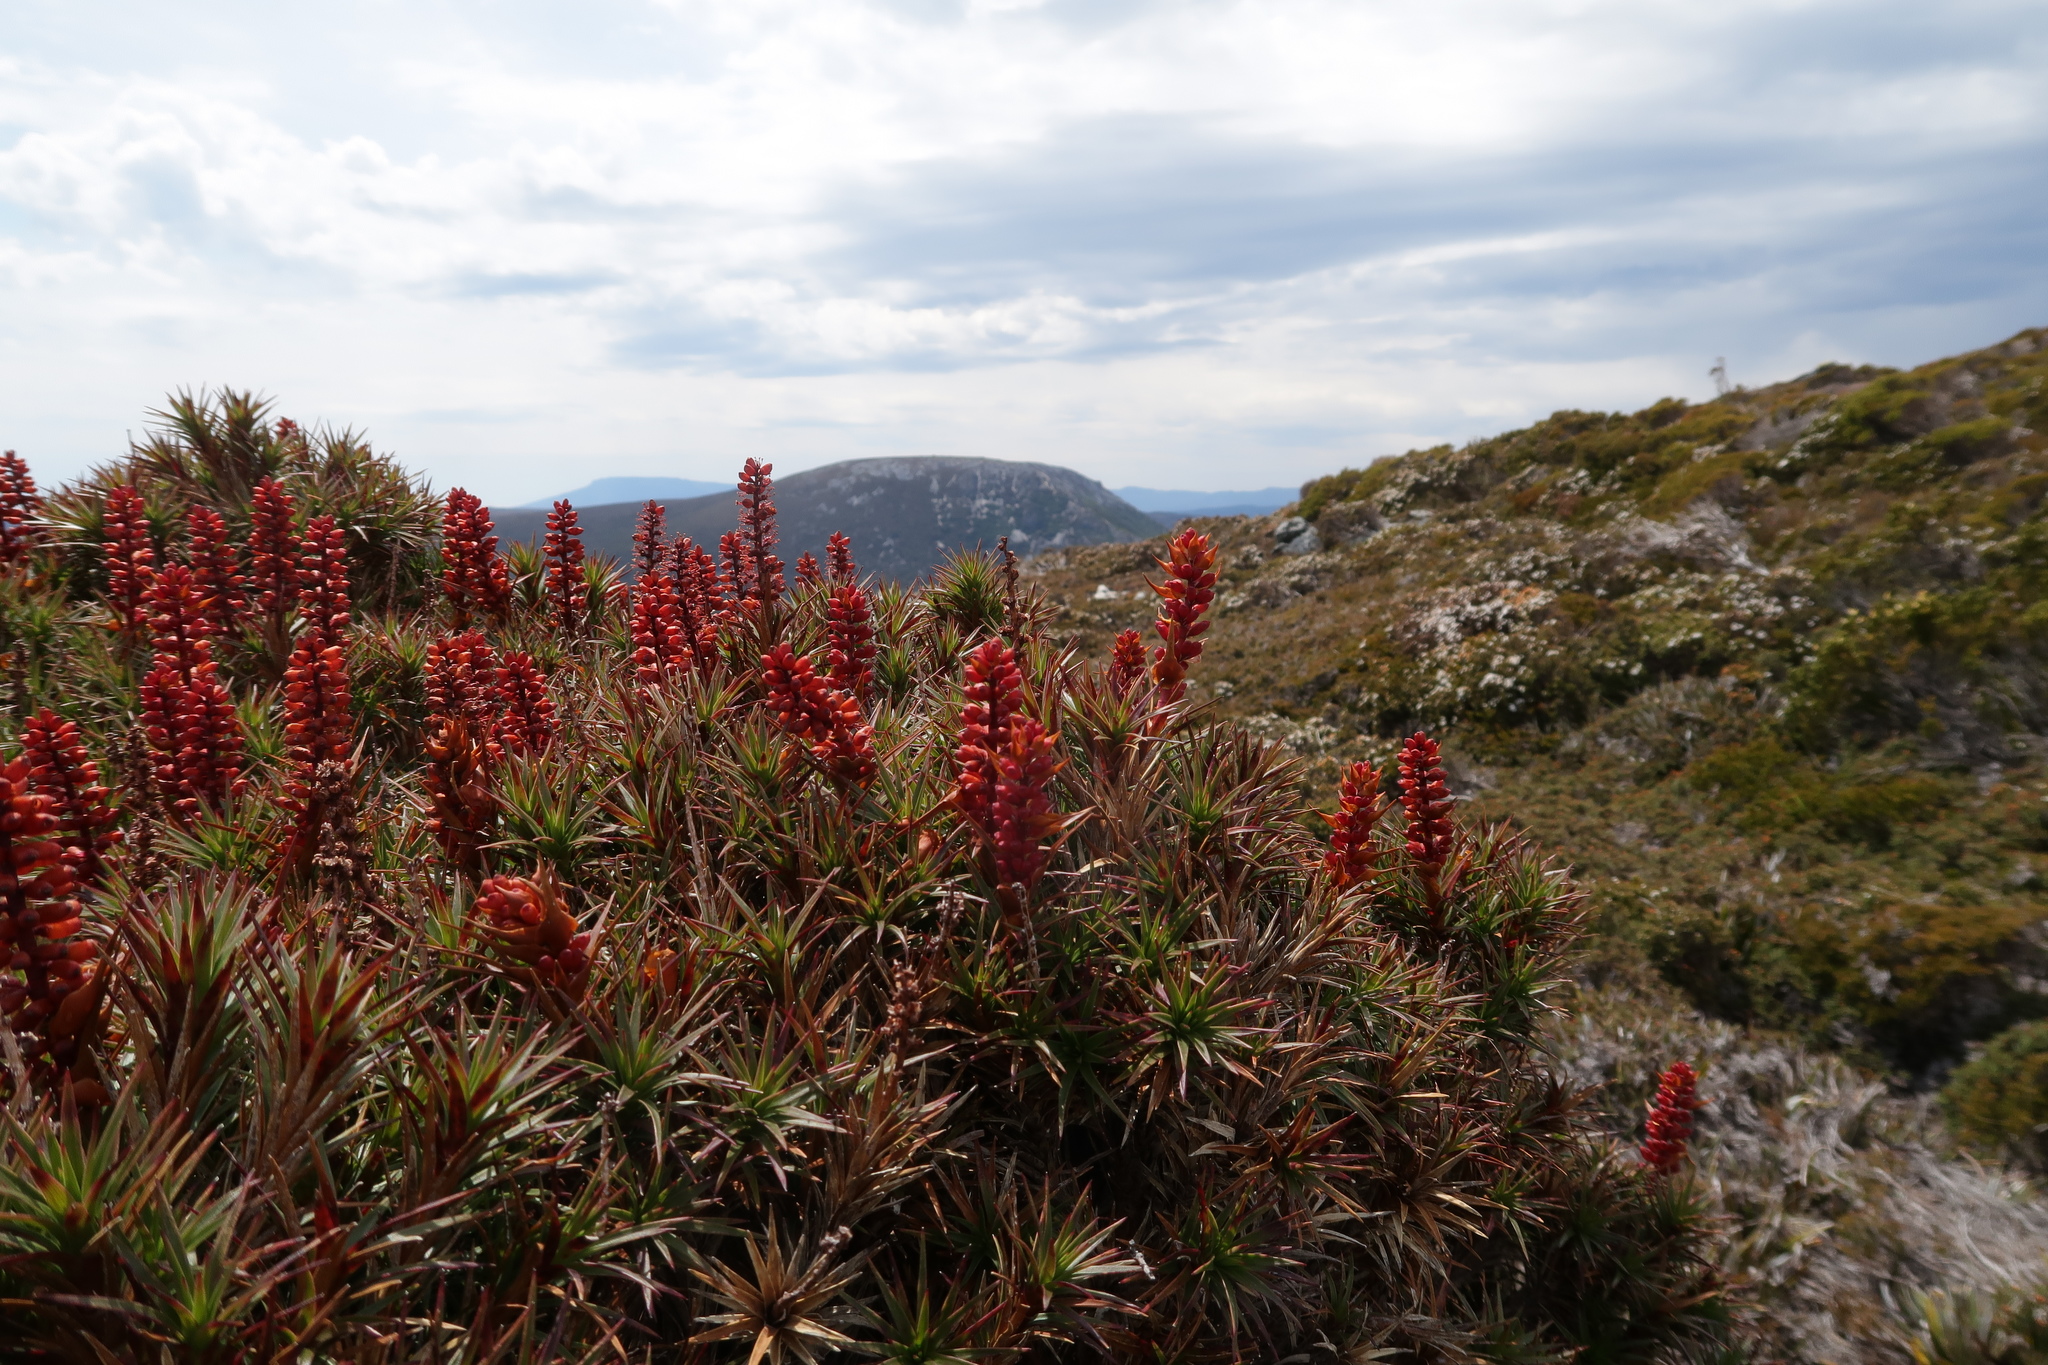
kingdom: Plantae
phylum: Tracheophyta
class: Magnoliopsida
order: Ericales
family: Ericaceae
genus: Dracophyllum
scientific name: Dracophyllum persistentifolium
